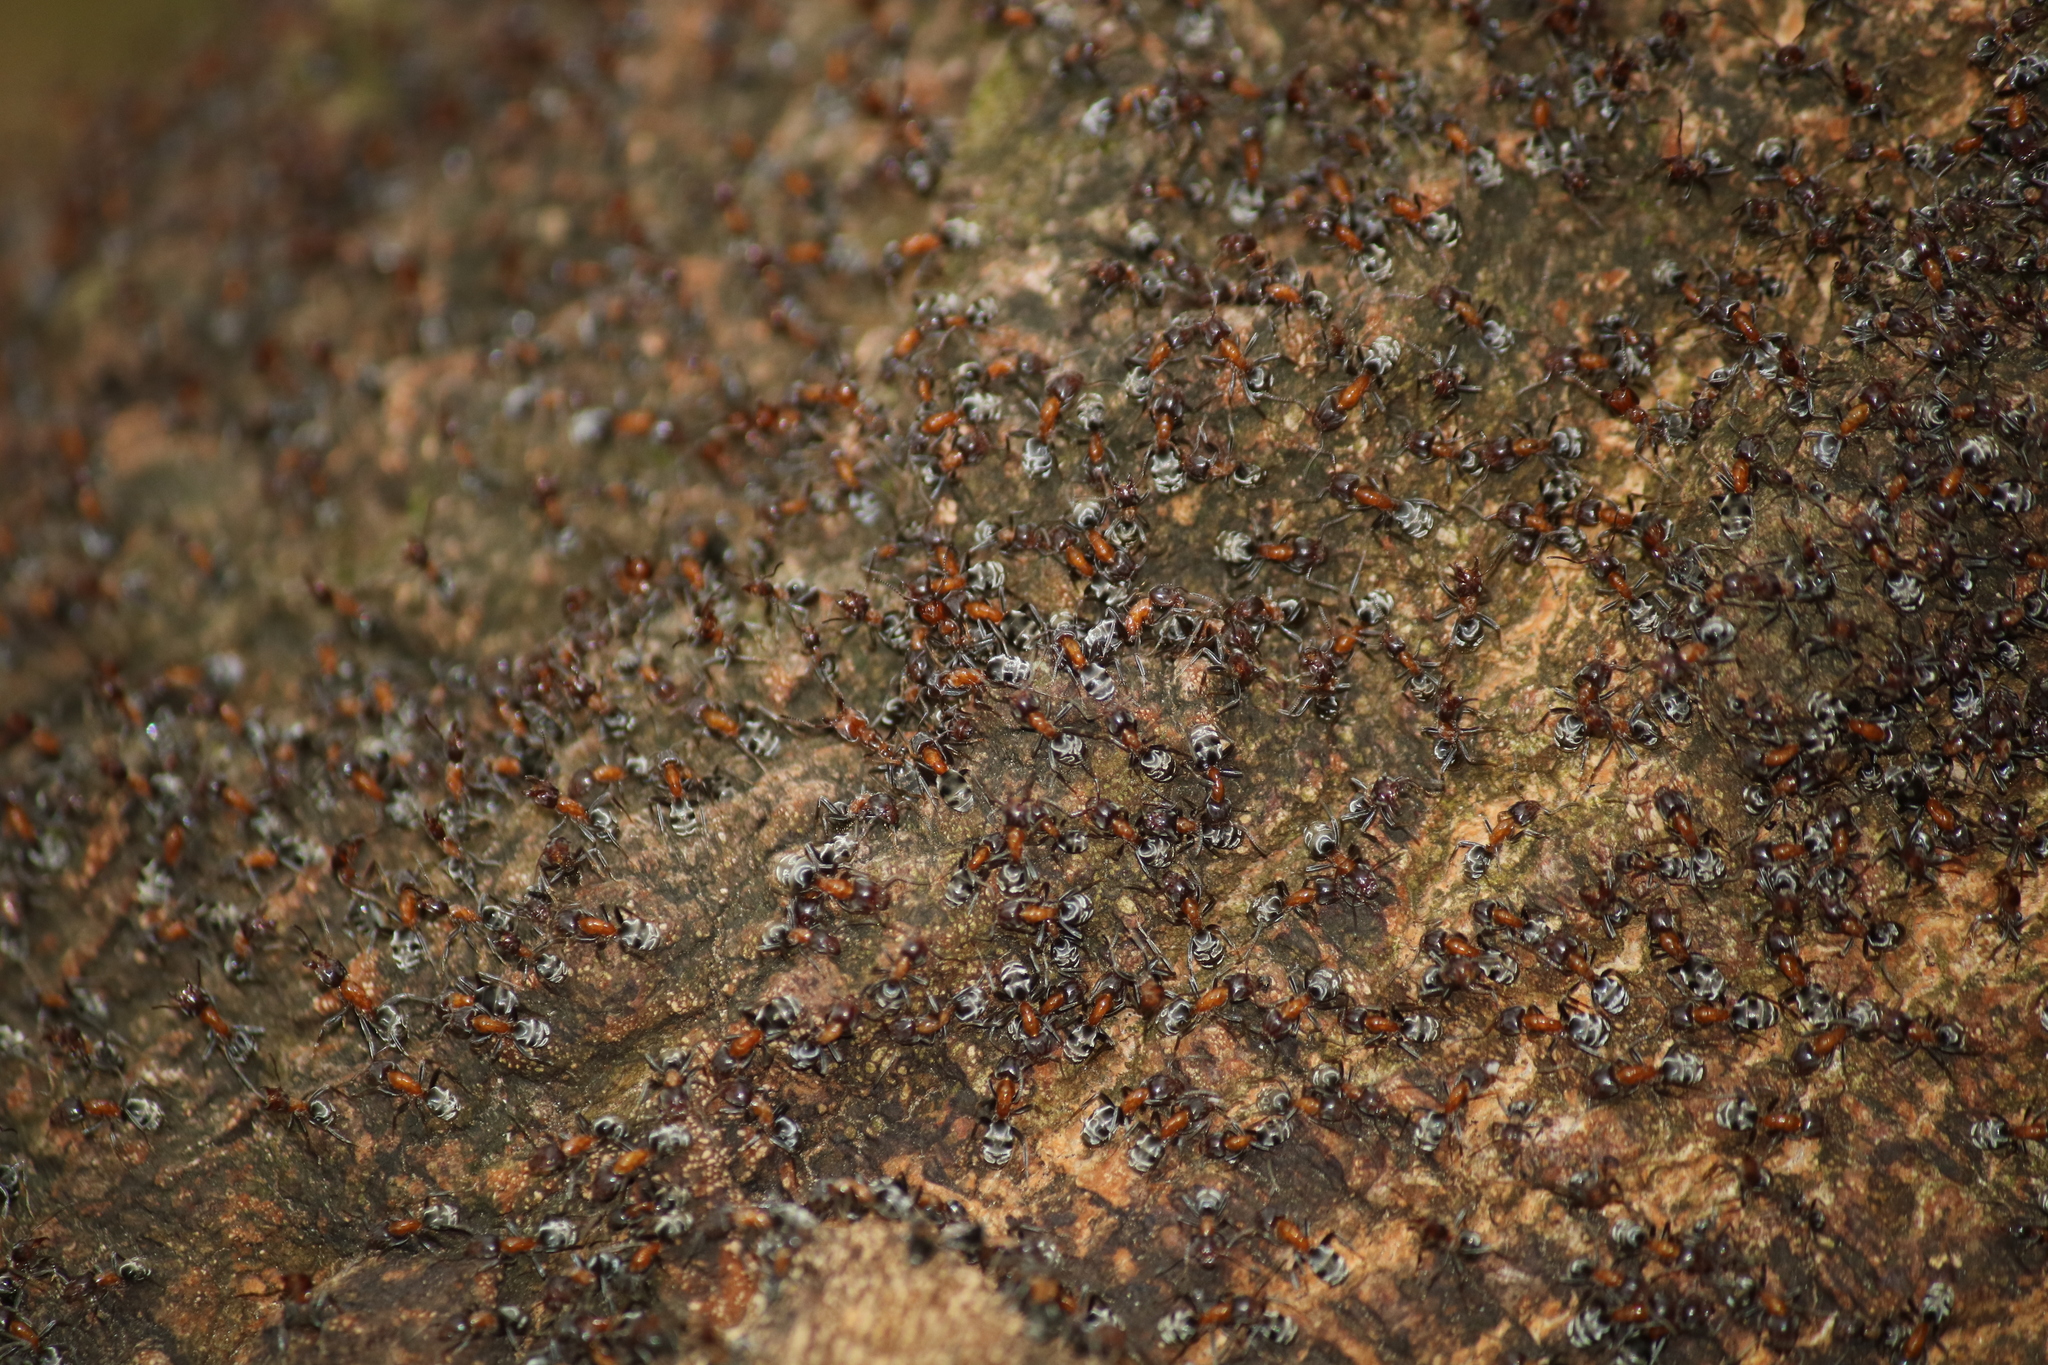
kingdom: Animalia
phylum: Arthropoda
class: Insecta
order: Hymenoptera
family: Formicidae
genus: Liometopum
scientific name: Liometopum microcephalum
